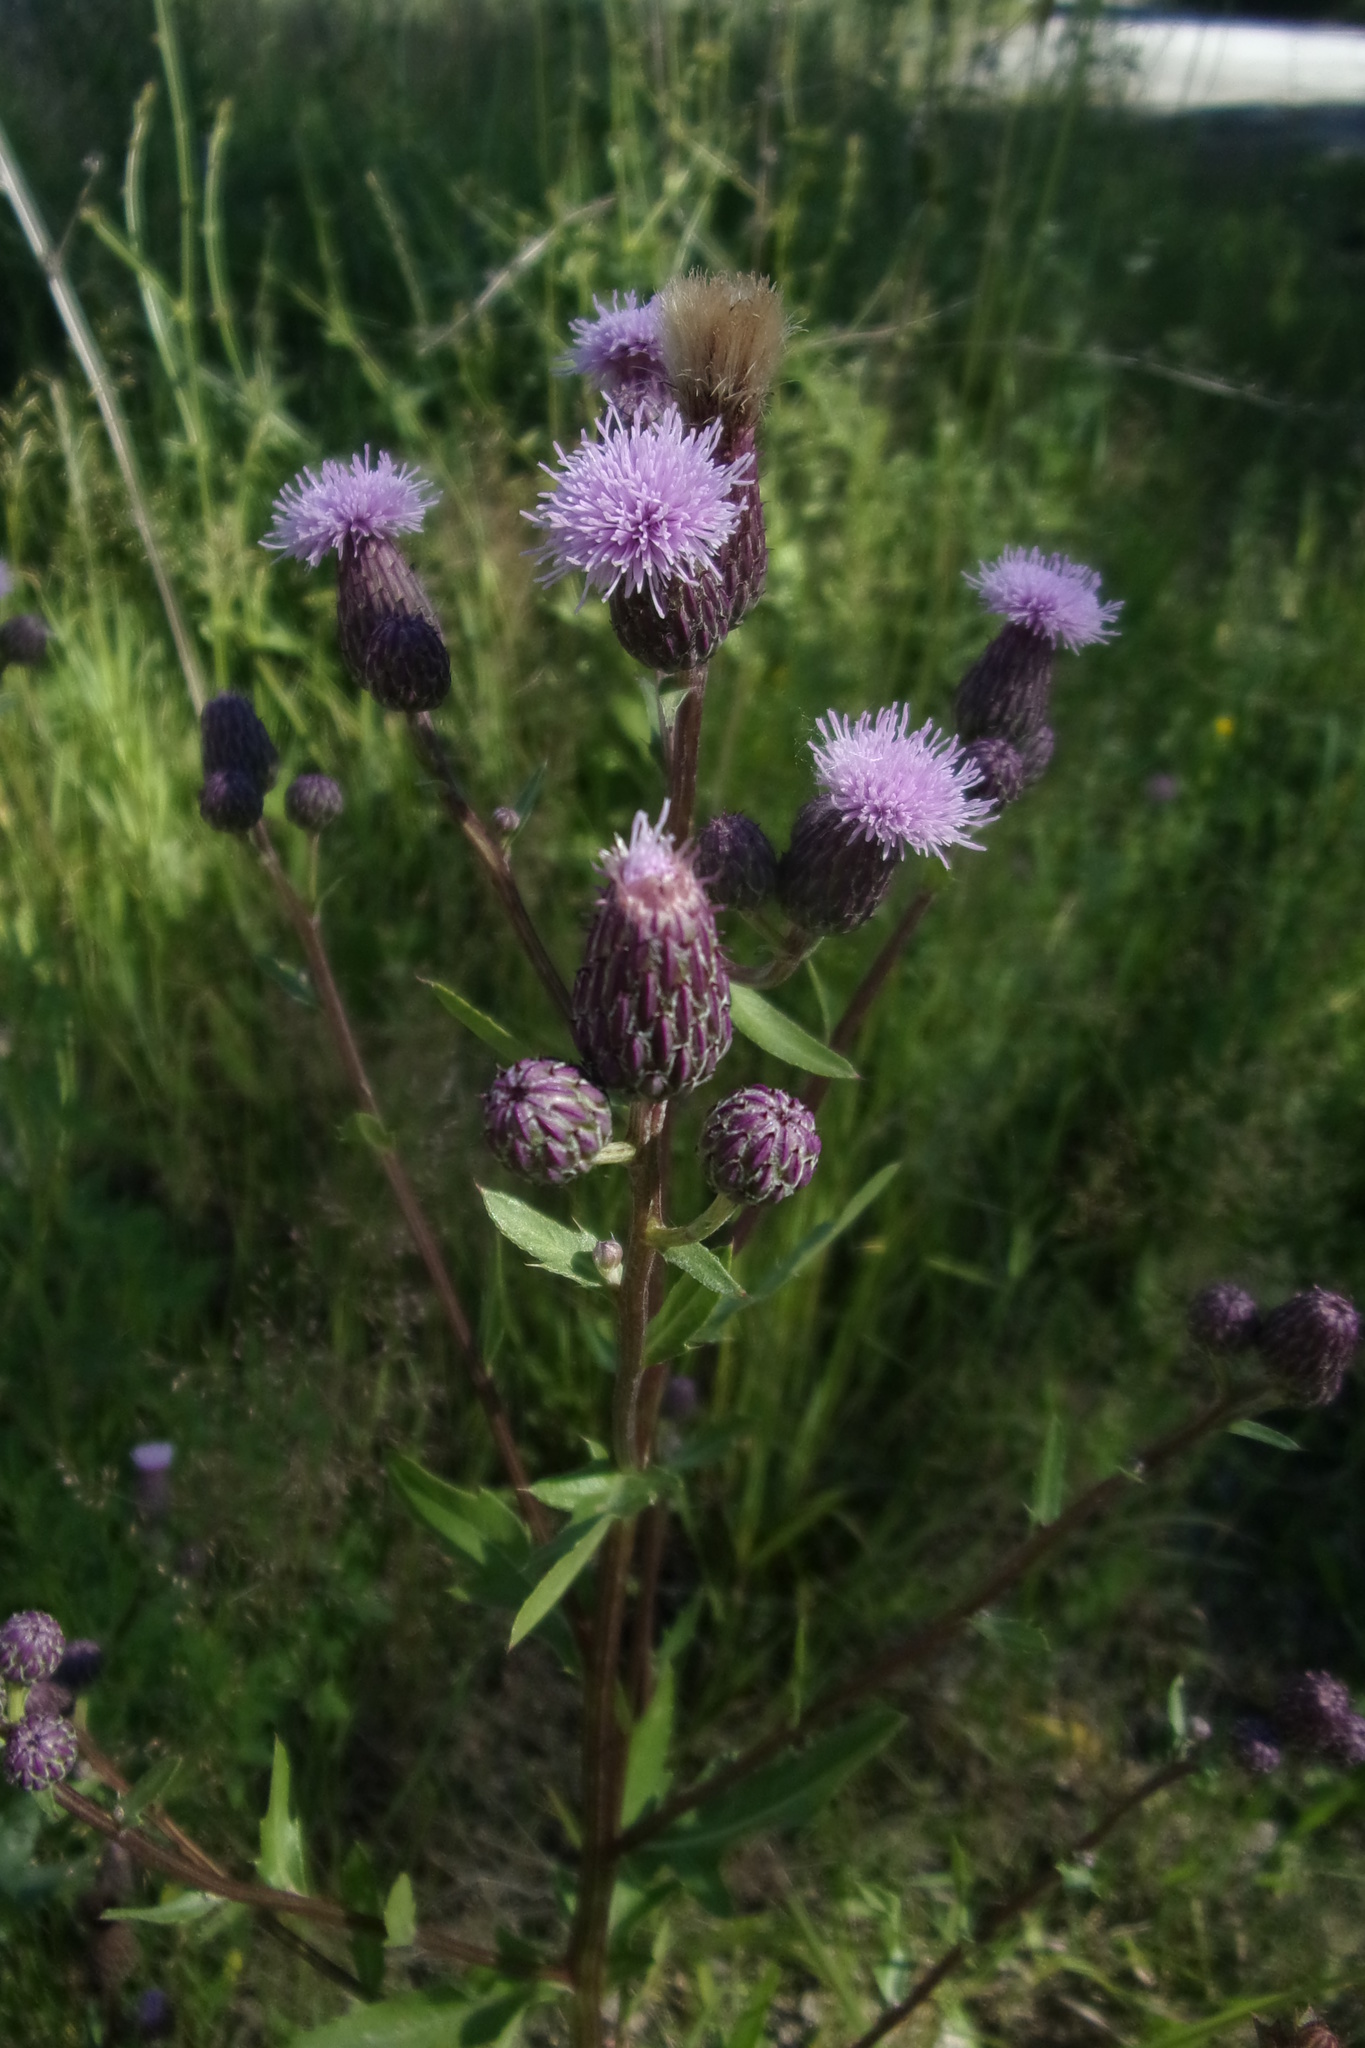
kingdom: Plantae
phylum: Tracheophyta
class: Magnoliopsida
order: Asterales
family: Asteraceae
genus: Cirsium
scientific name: Cirsium arvense
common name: Creeping thistle
